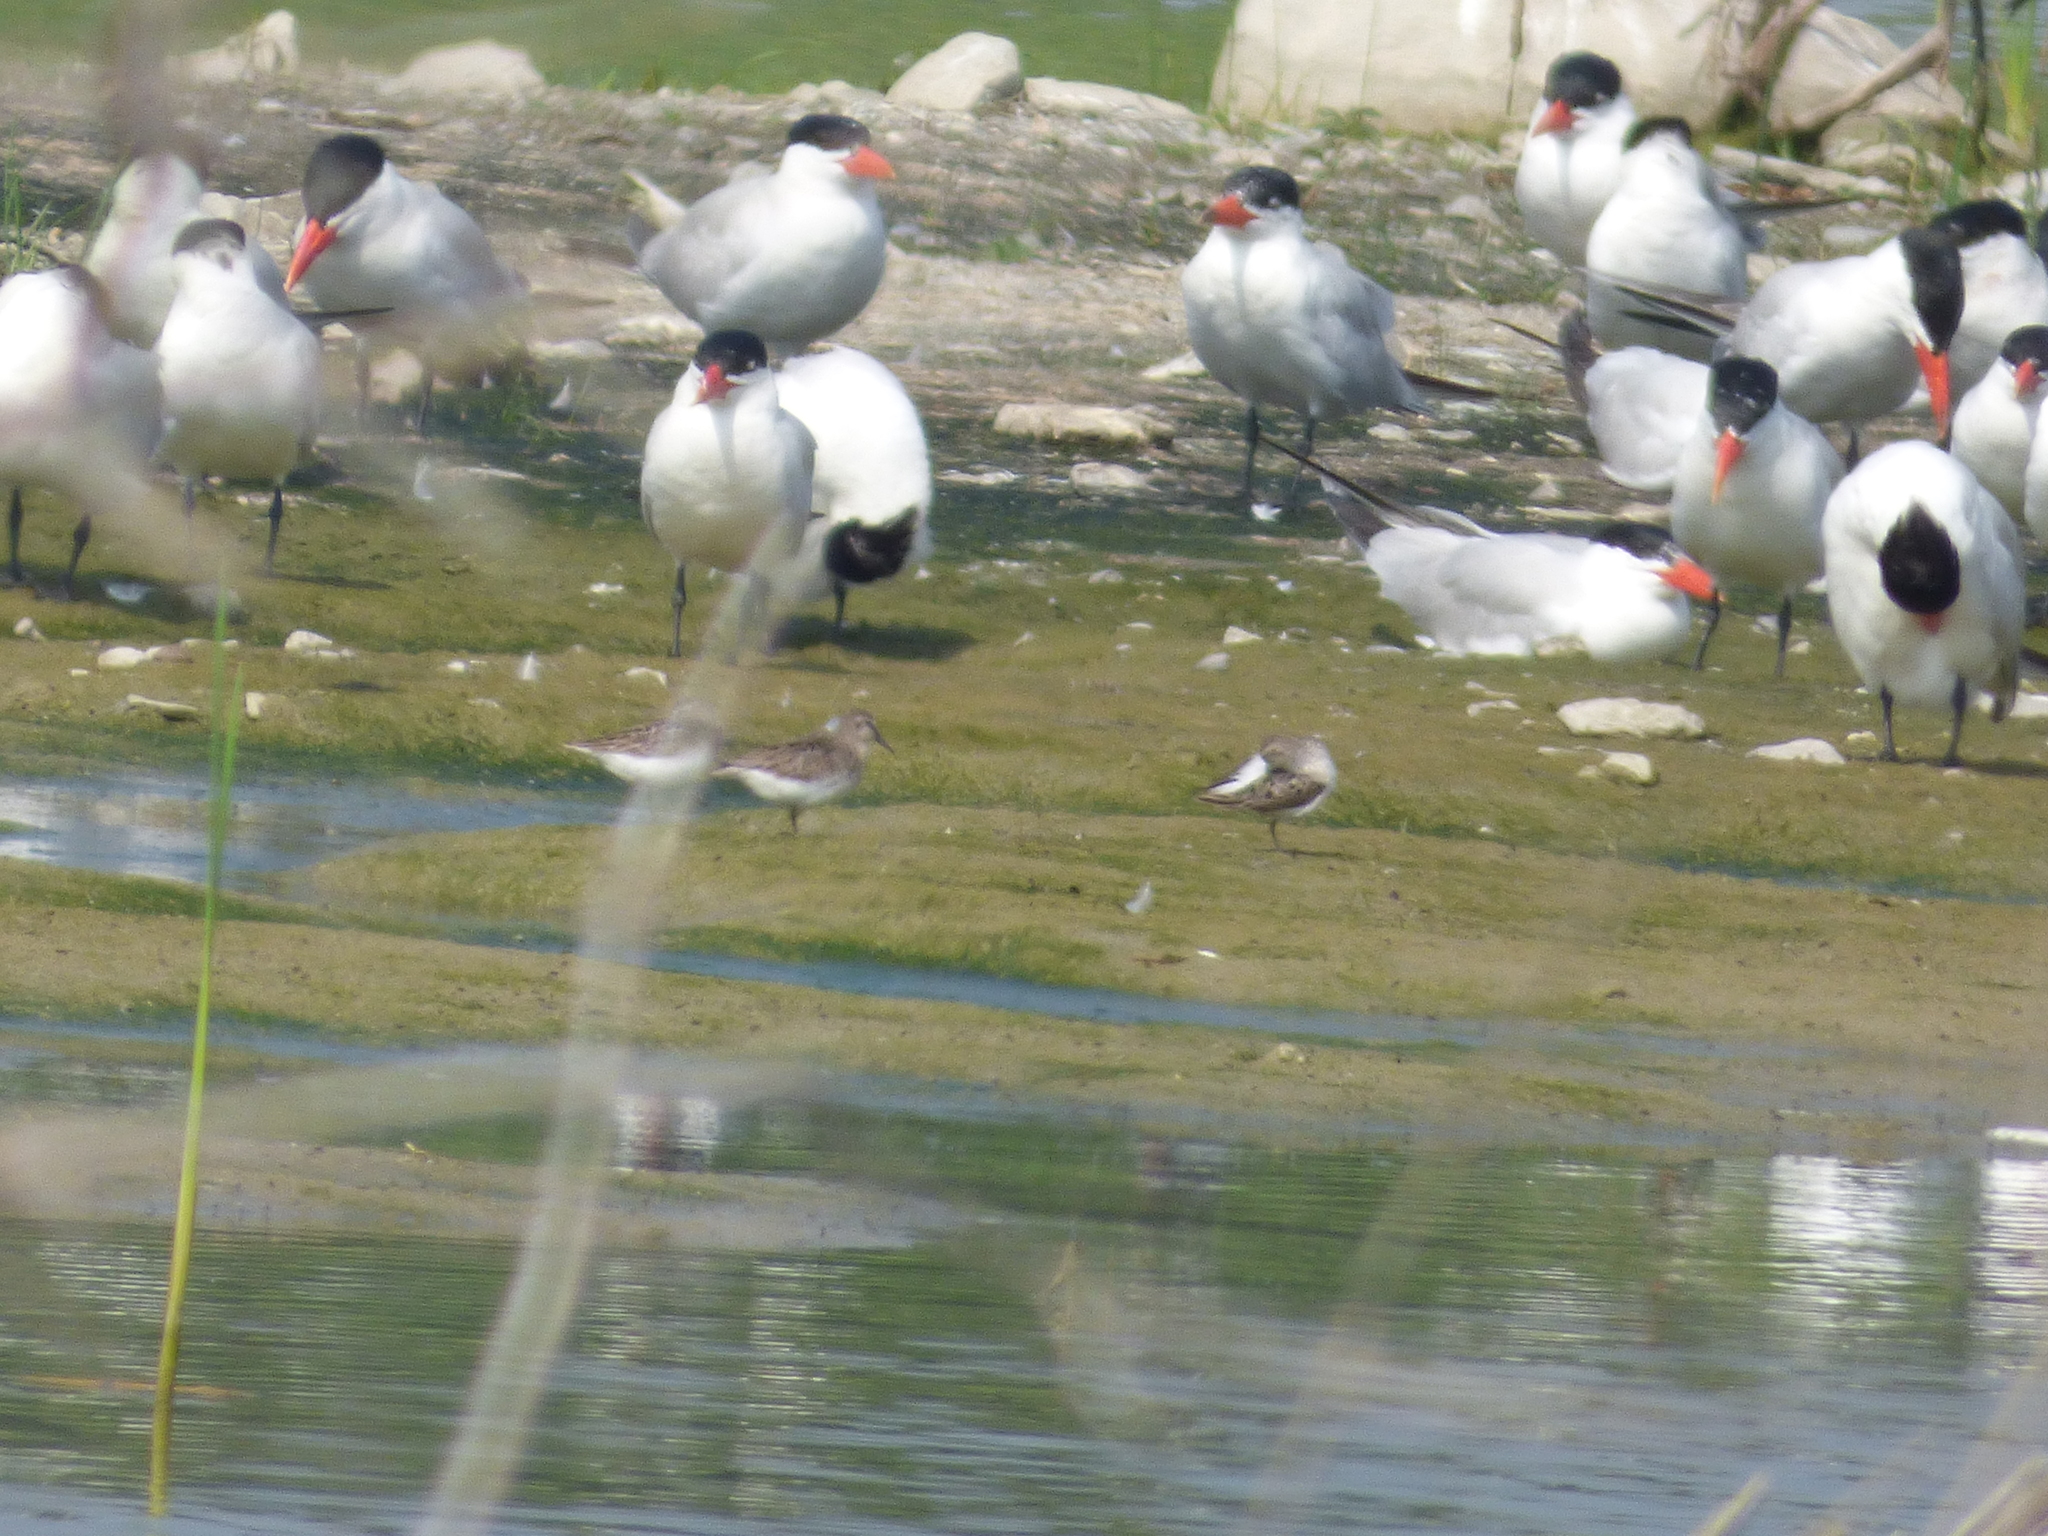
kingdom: Animalia
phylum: Chordata
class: Aves
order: Charadriiformes
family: Scolopacidae
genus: Calidris
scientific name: Calidris pusilla
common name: Semipalmated sandpiper
